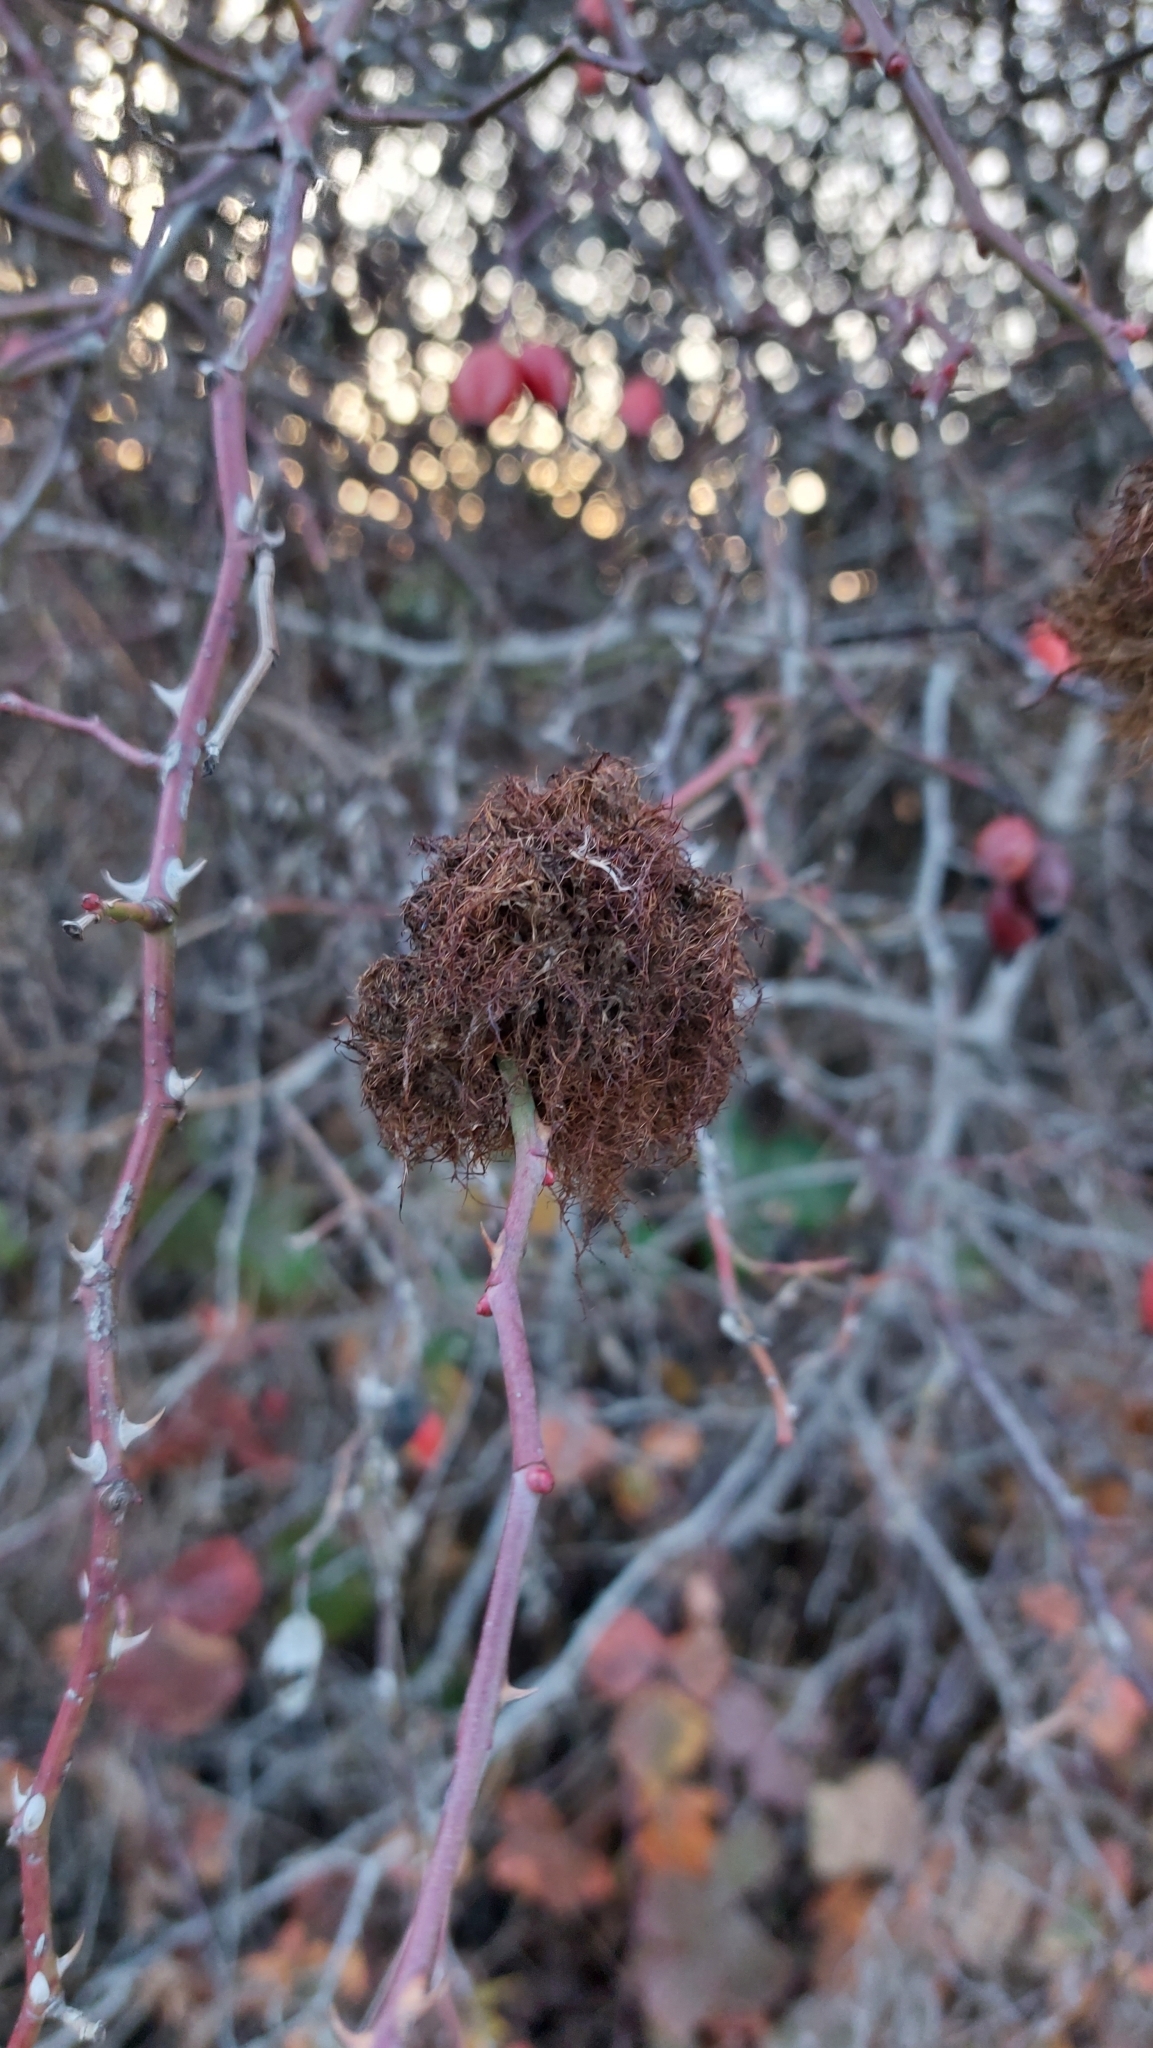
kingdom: Animalia
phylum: Arthropoda
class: Insecta
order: Hymenoptera
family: Cynipidae
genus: Diplolepis
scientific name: Diplolepis rosae
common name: Bedeguar gall
